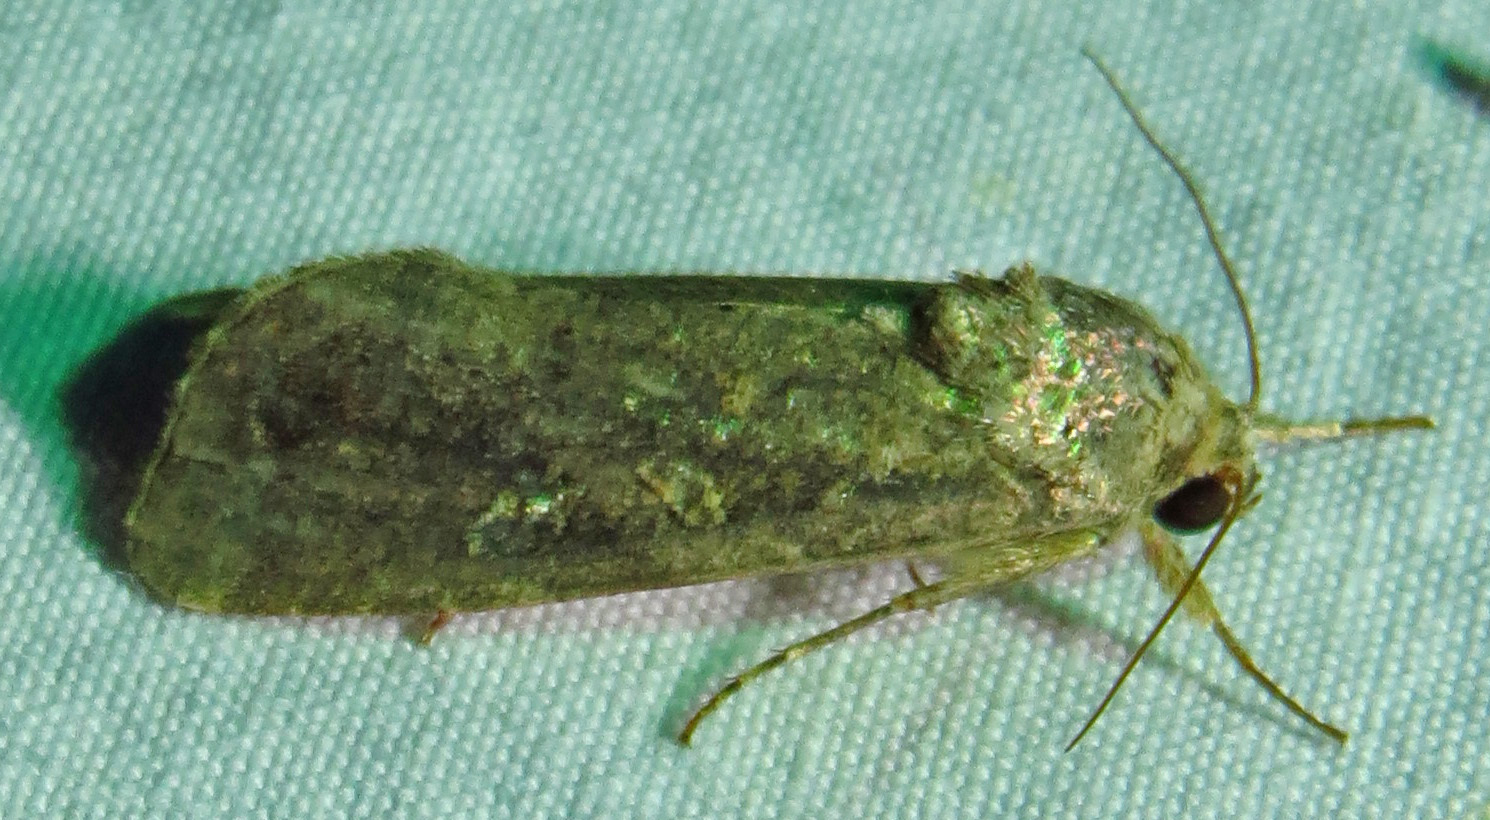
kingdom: Animalia
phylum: Arthropoda
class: Insecta
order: Lepidoptera
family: Noctuidae
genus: Spodoptera
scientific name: Spodoptera frugiperda
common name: Fall armyworm
